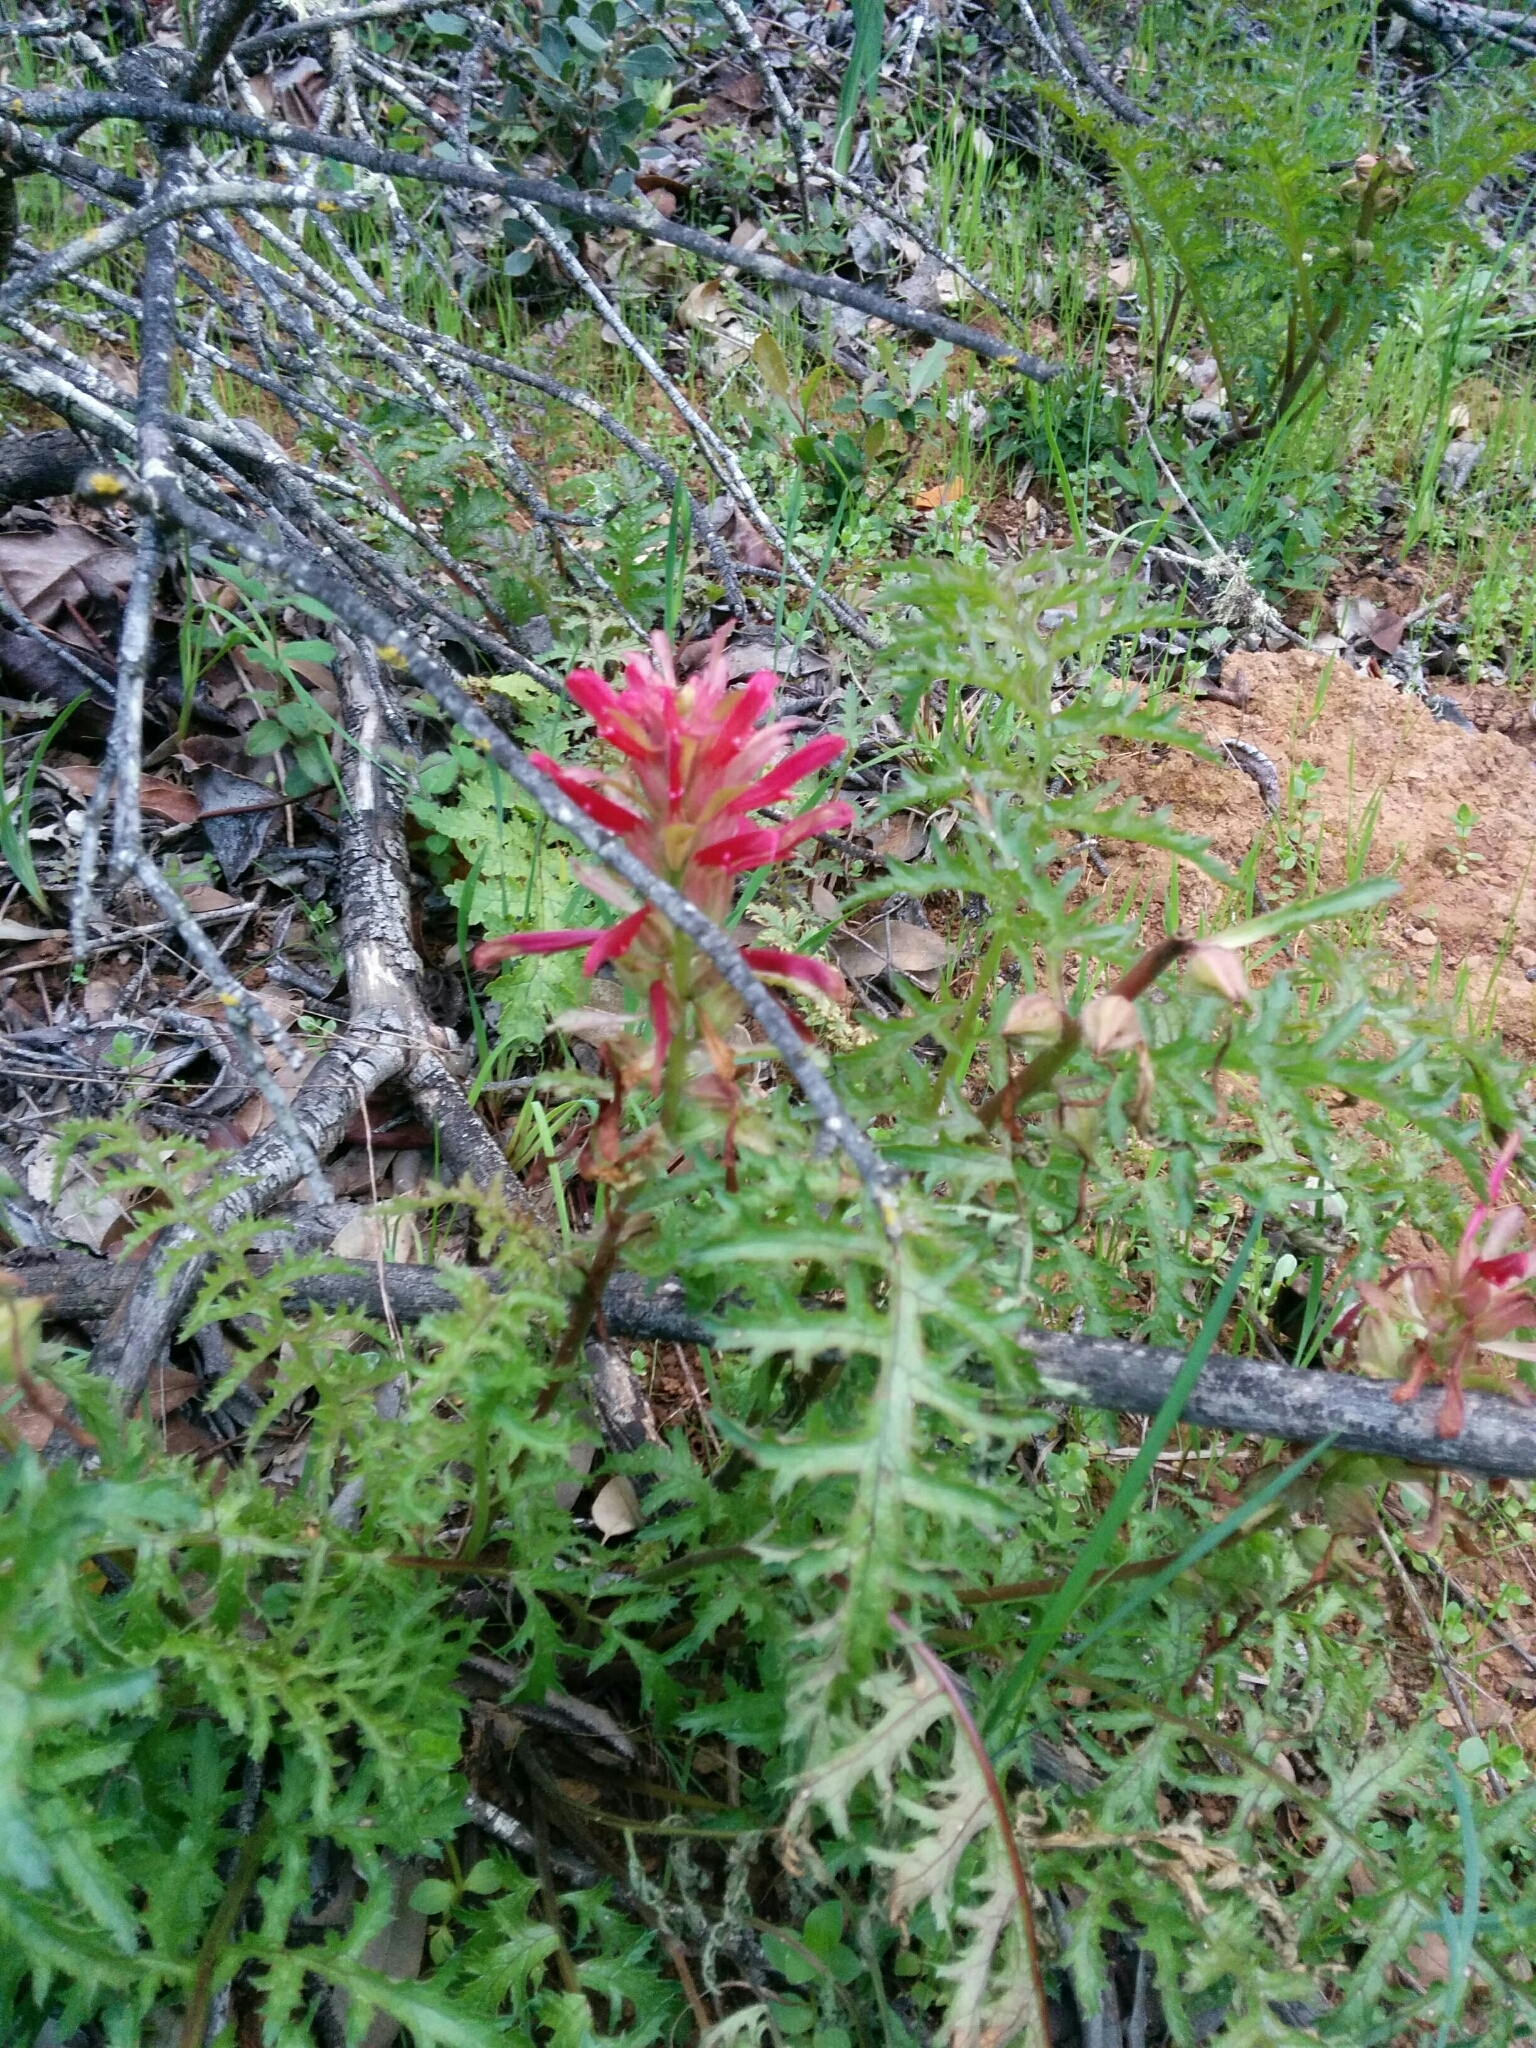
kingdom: Plantae
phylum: Tracheophyta
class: Magnoliopsida
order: Lamiales
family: Orobanchaceae
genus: Pedicularis
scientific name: Pedicularis densiflora
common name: Indian warrior
